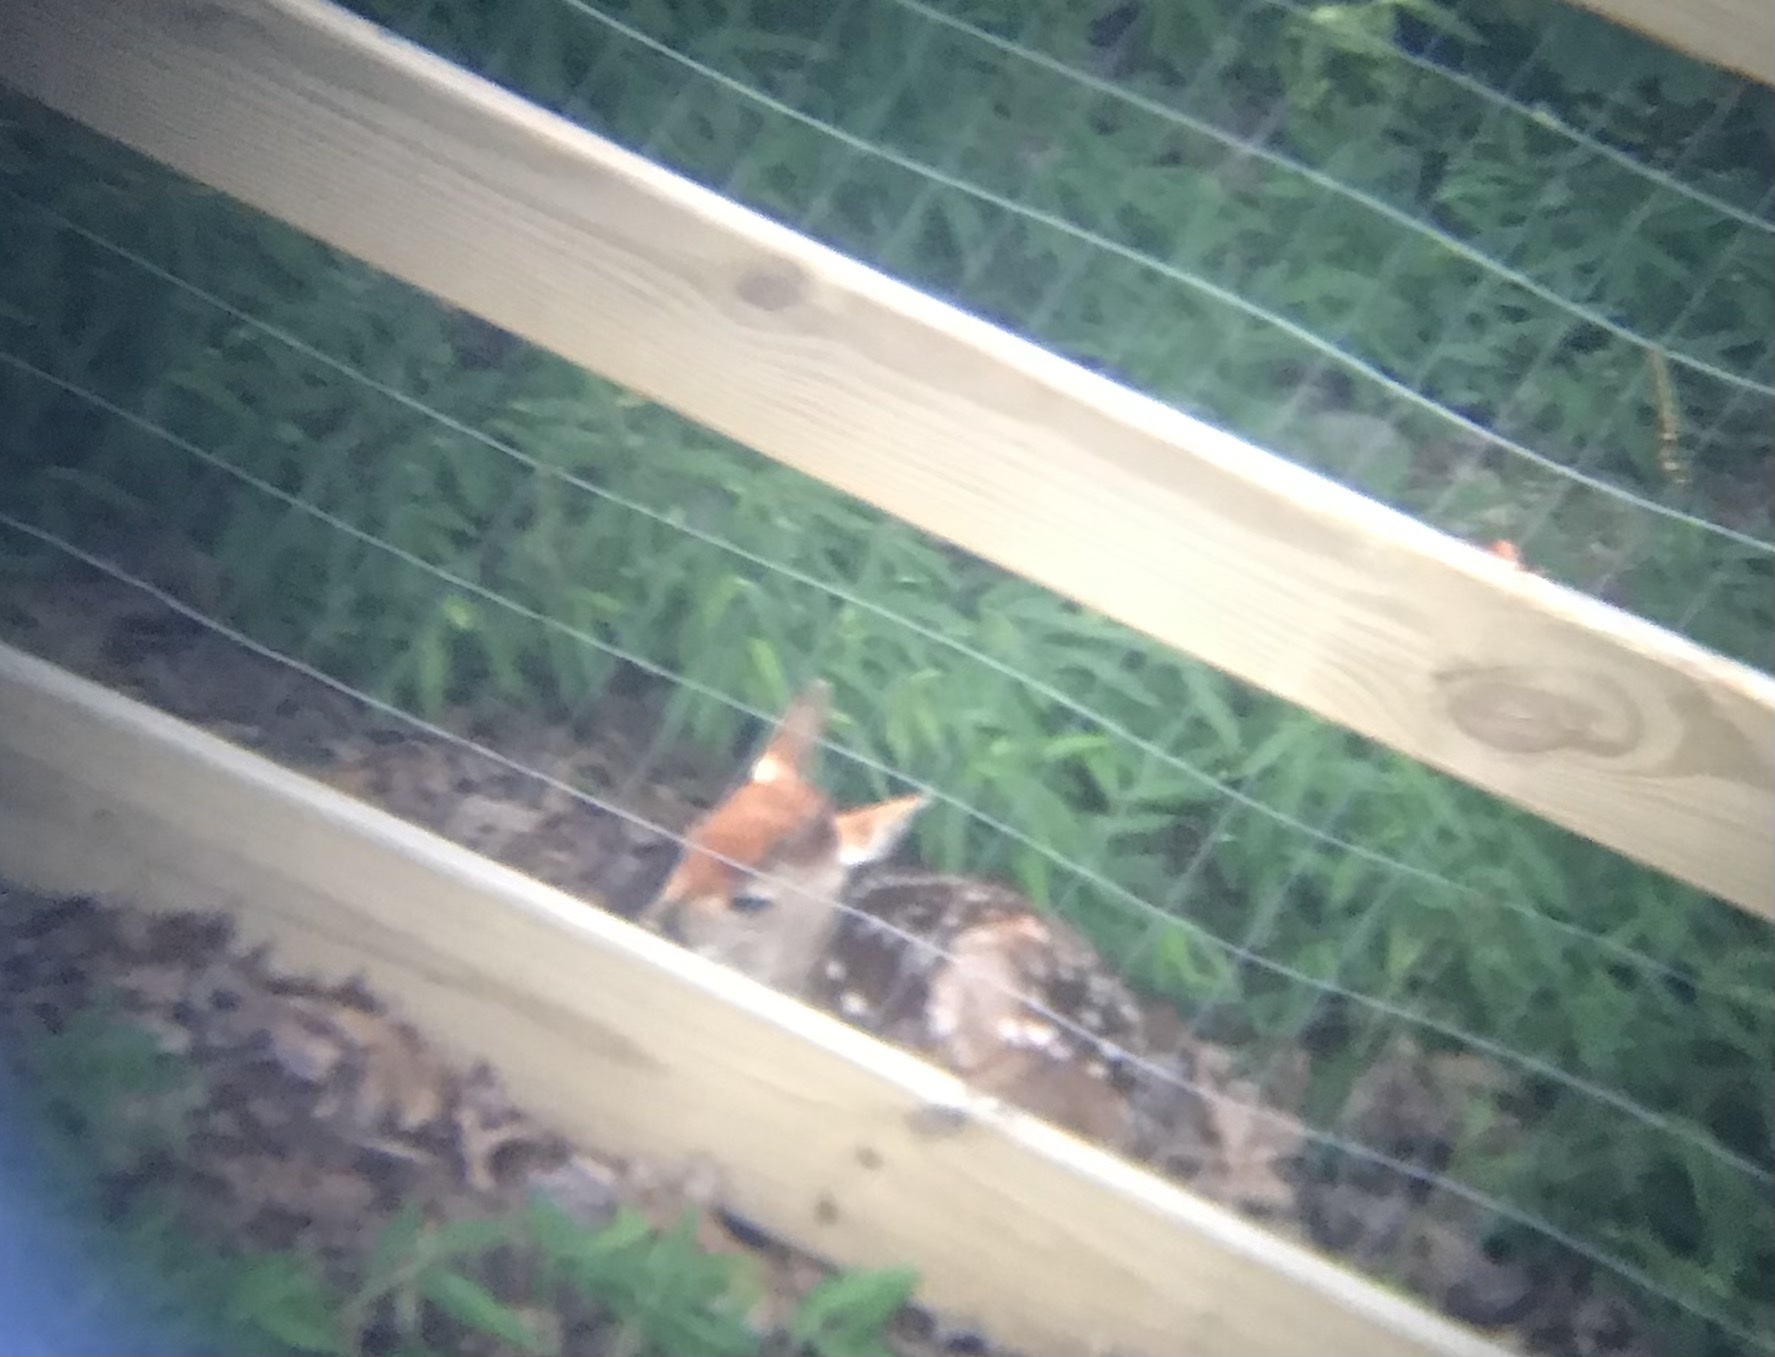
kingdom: Animalia
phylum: Chordata
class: Mammalia
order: Artiodactyla
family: Cervidae
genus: Odocoileus
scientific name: Odocoileus virginianus
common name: White-tailed deer
